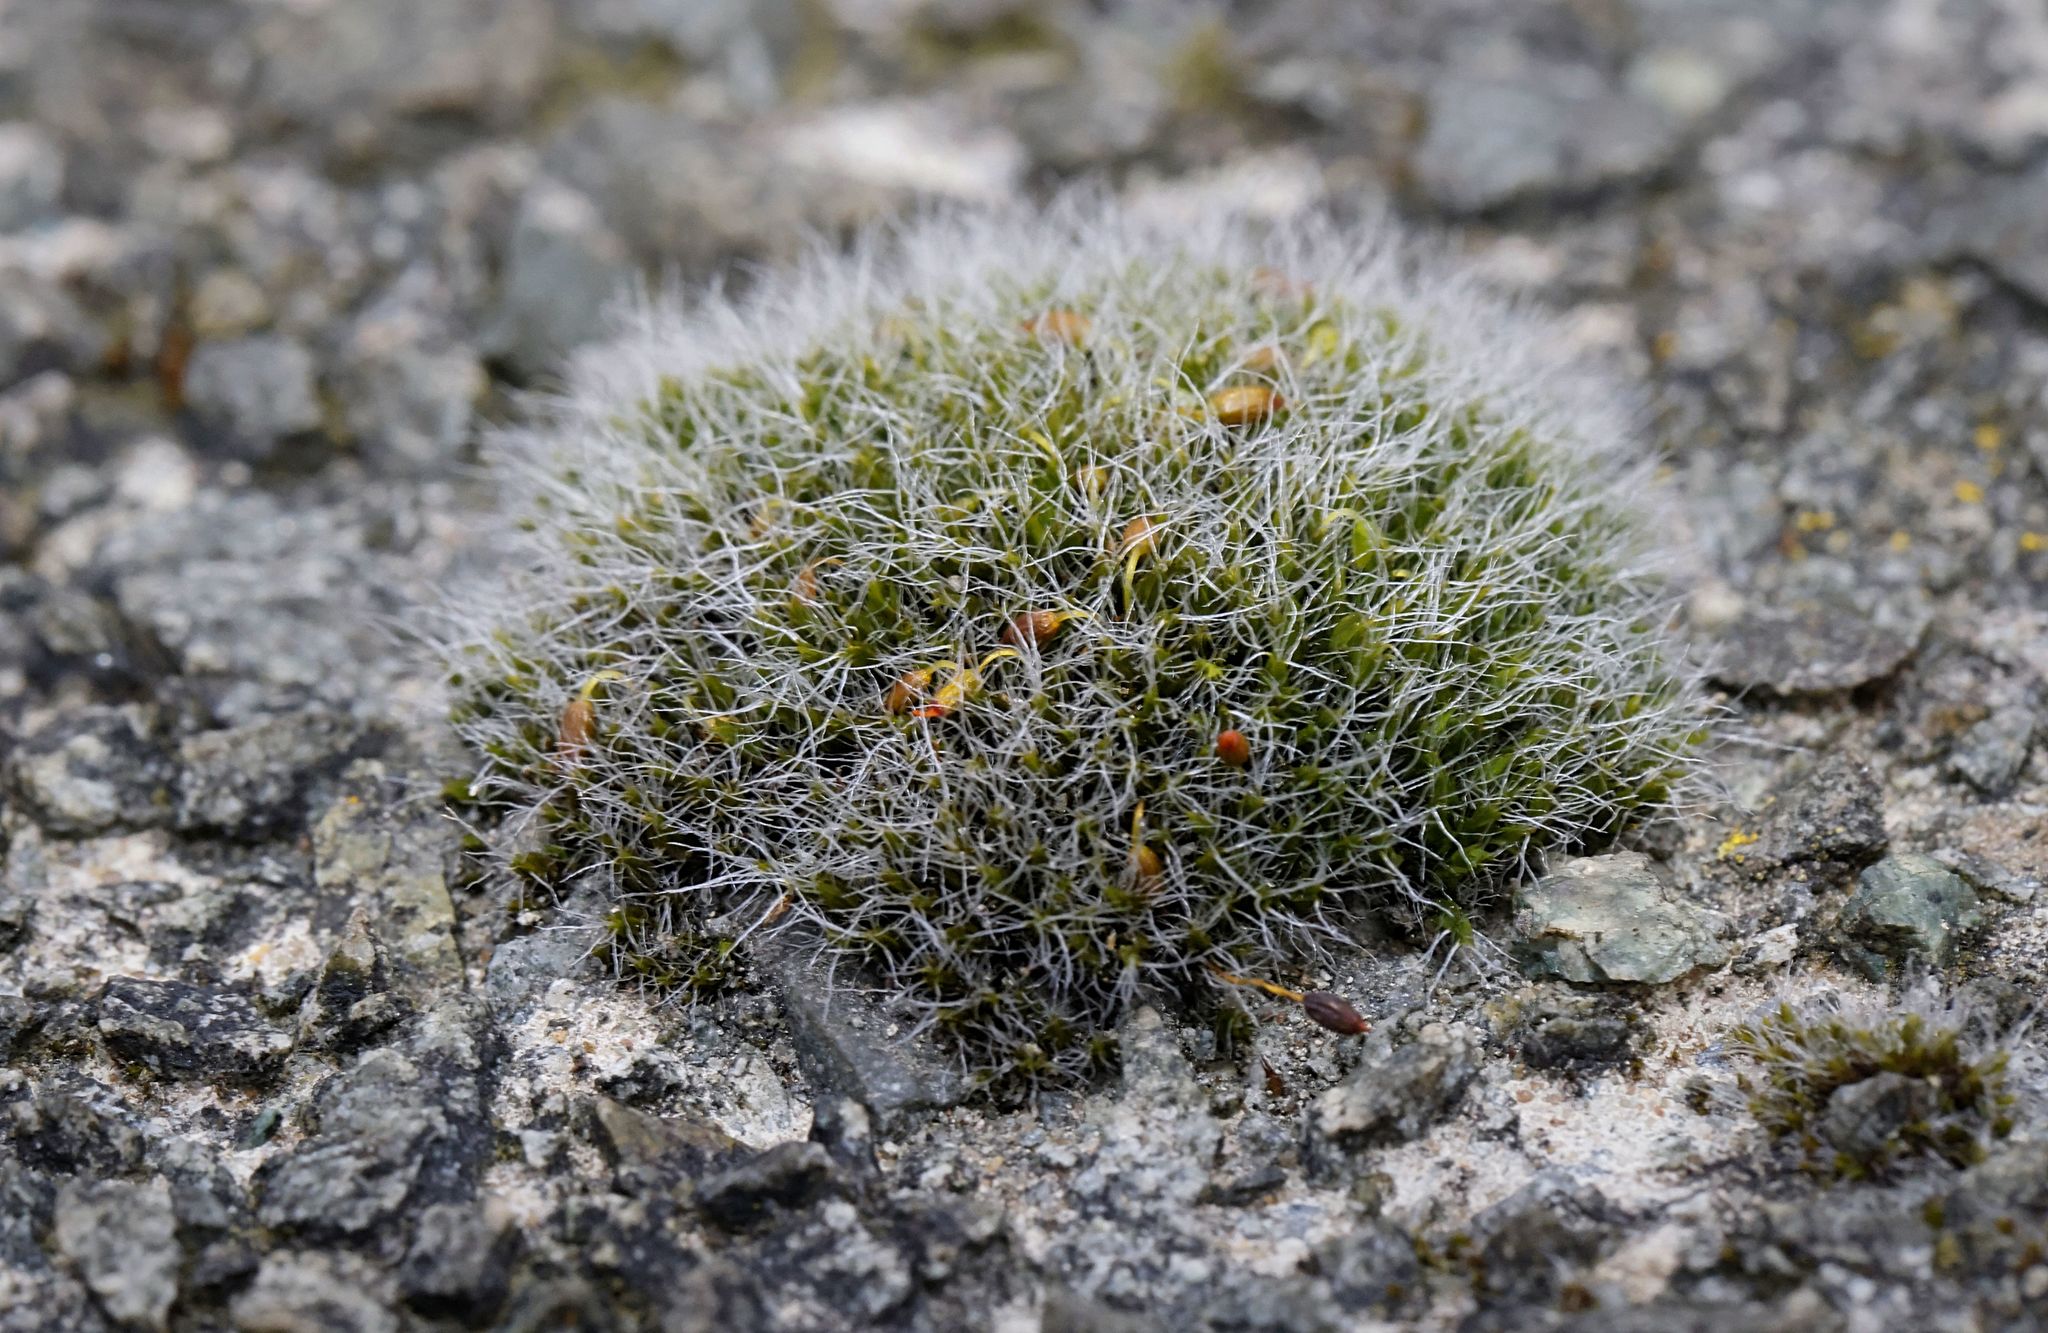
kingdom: Plantae
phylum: Bryophyta
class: Bryopsida
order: Grimmiales
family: Grimmiaceae
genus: Grimmia
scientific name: Grimmia pulvinata
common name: Grey-cushioned grimmia
